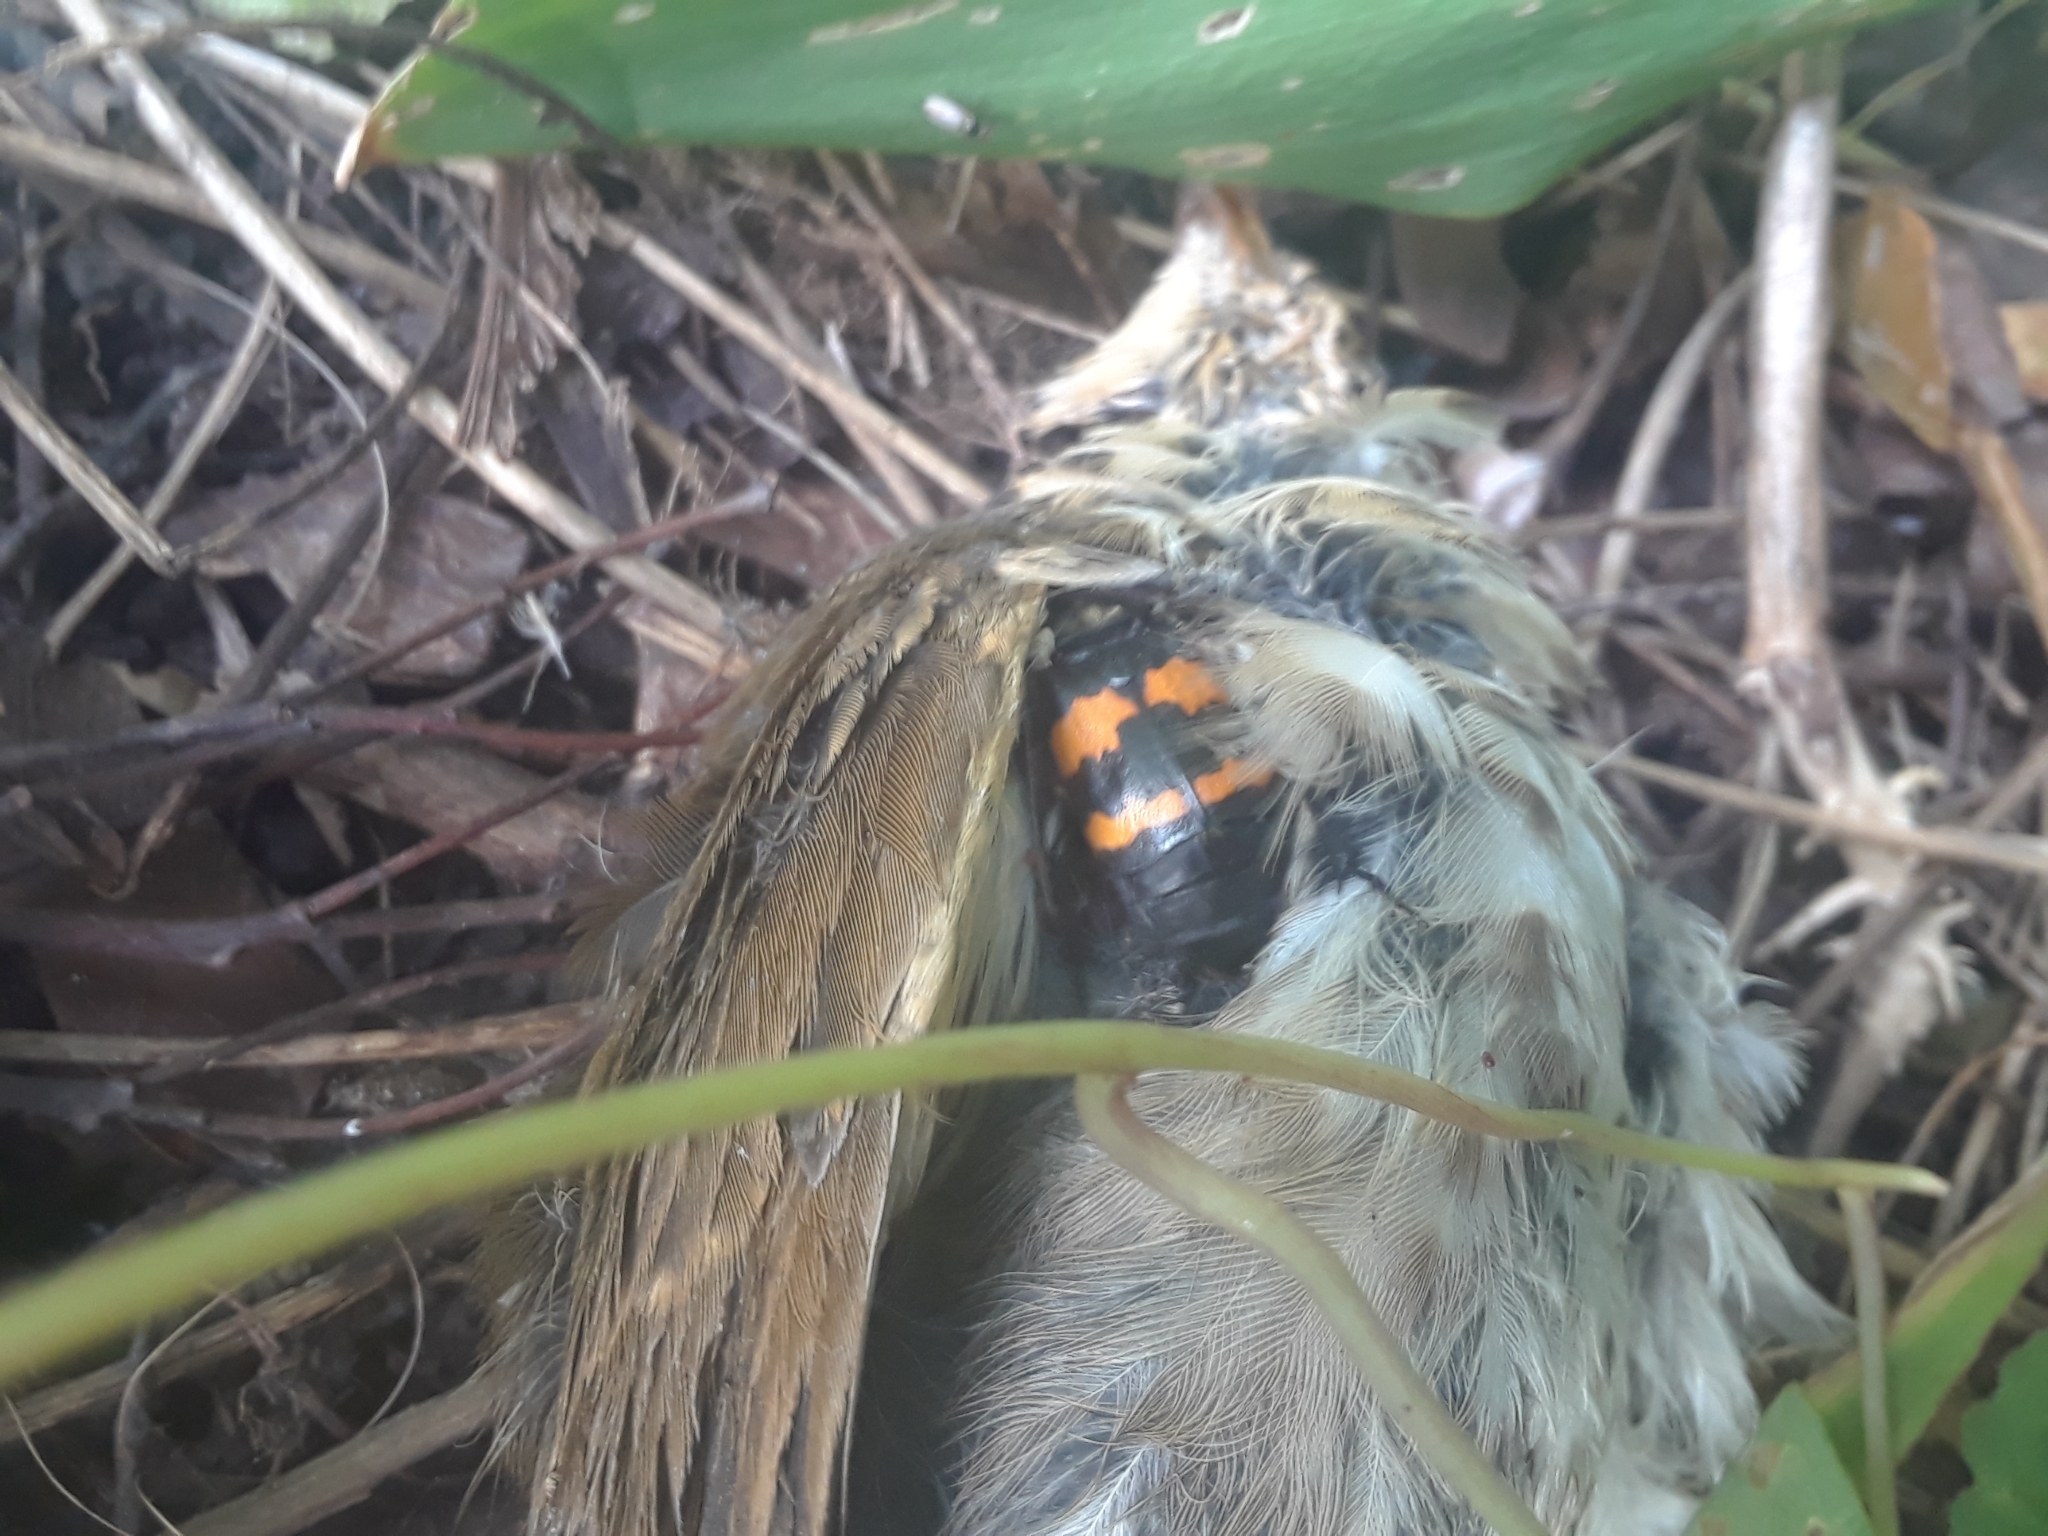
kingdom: Animalia
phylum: Arthropoda
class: Insecta
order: Coleoptera
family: Staphylinidae
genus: Nicrophorus
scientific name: Nicrophorus tomentosus
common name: Tomentose burying beetle
